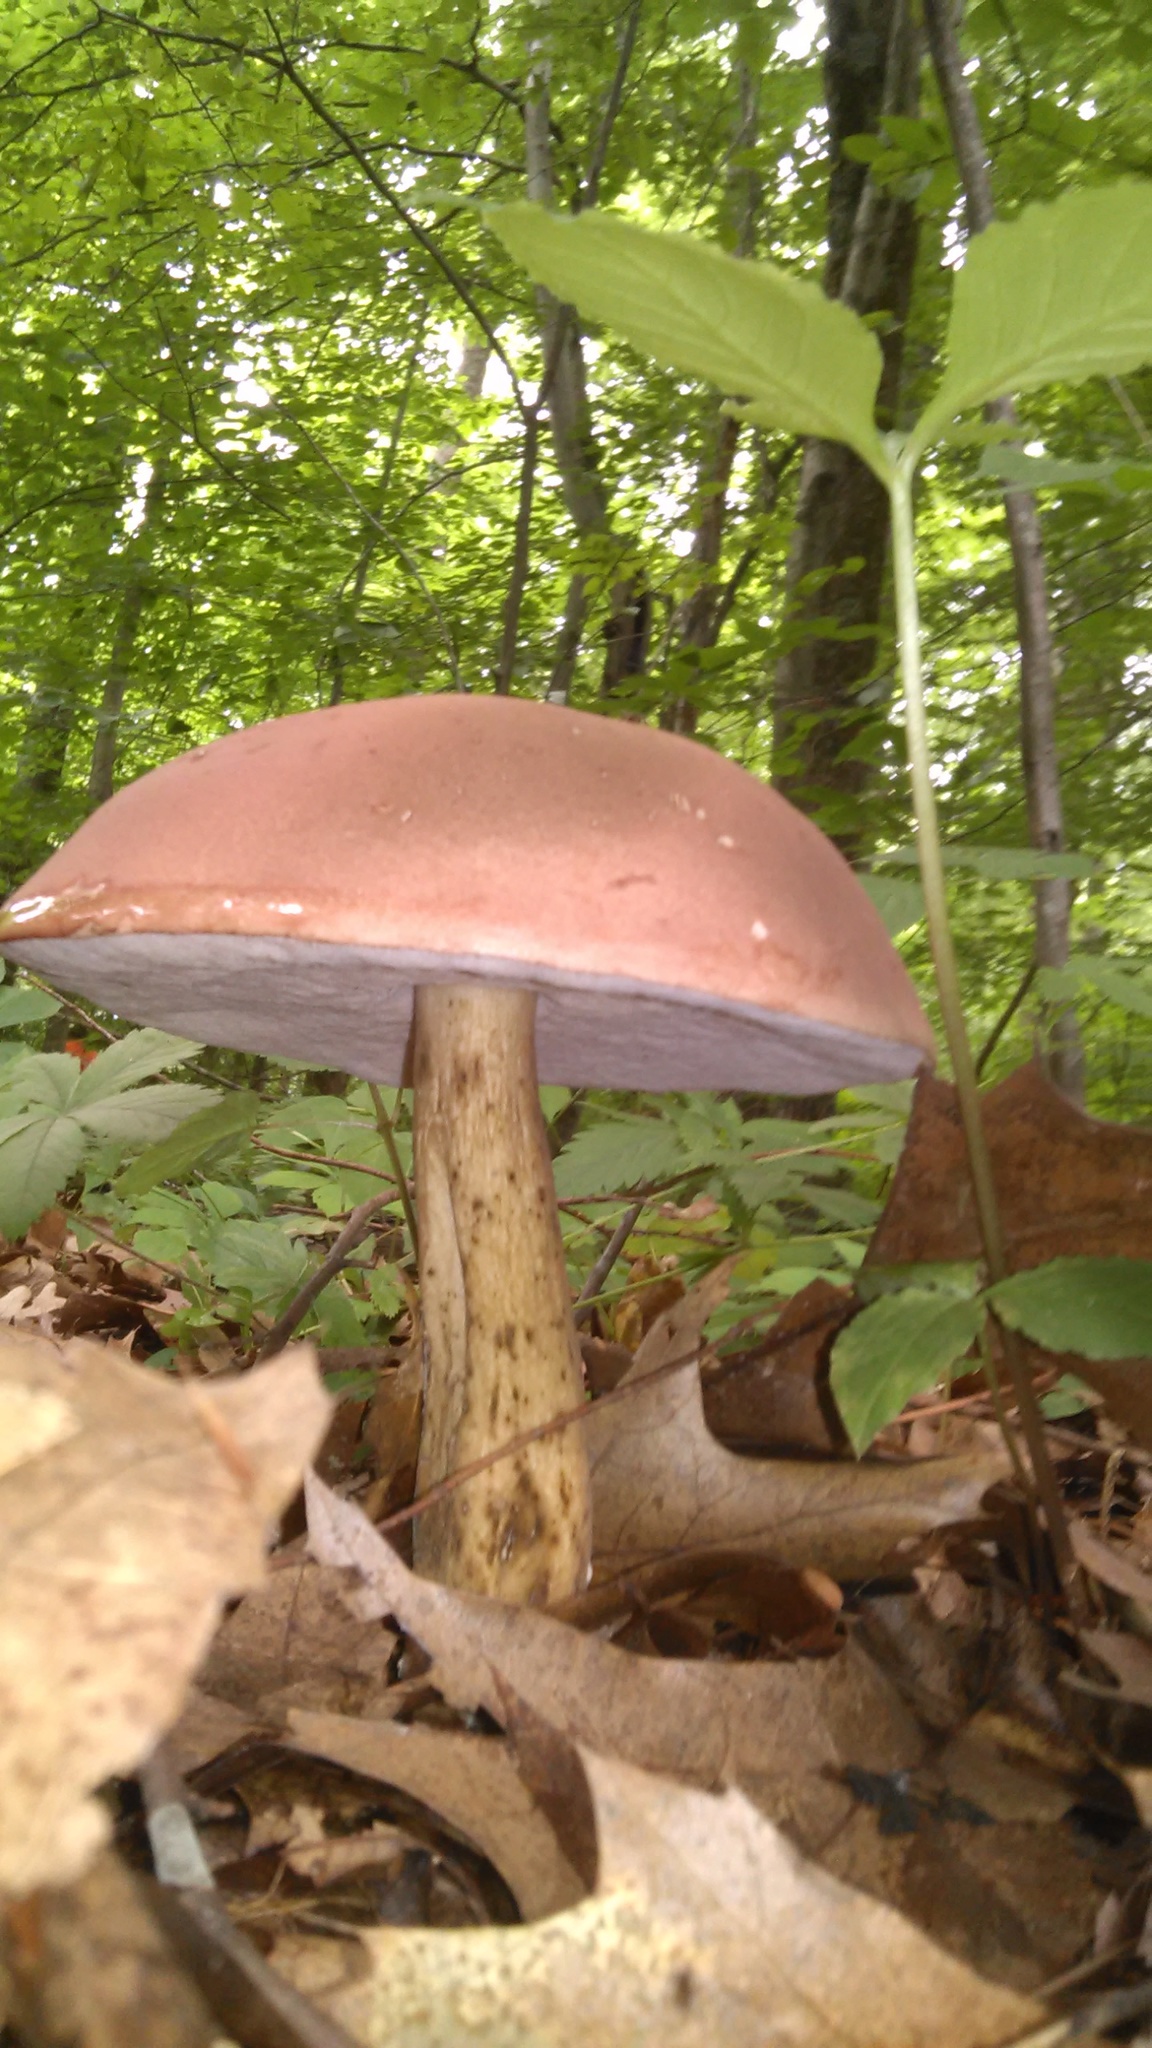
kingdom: Fungi
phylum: Basidiomycota
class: Agaricomycetes
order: Boletales
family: Boletaceae
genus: Tylopilus
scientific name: Tylopilus rubrobrunneus
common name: Reddish brown bitter bolete
